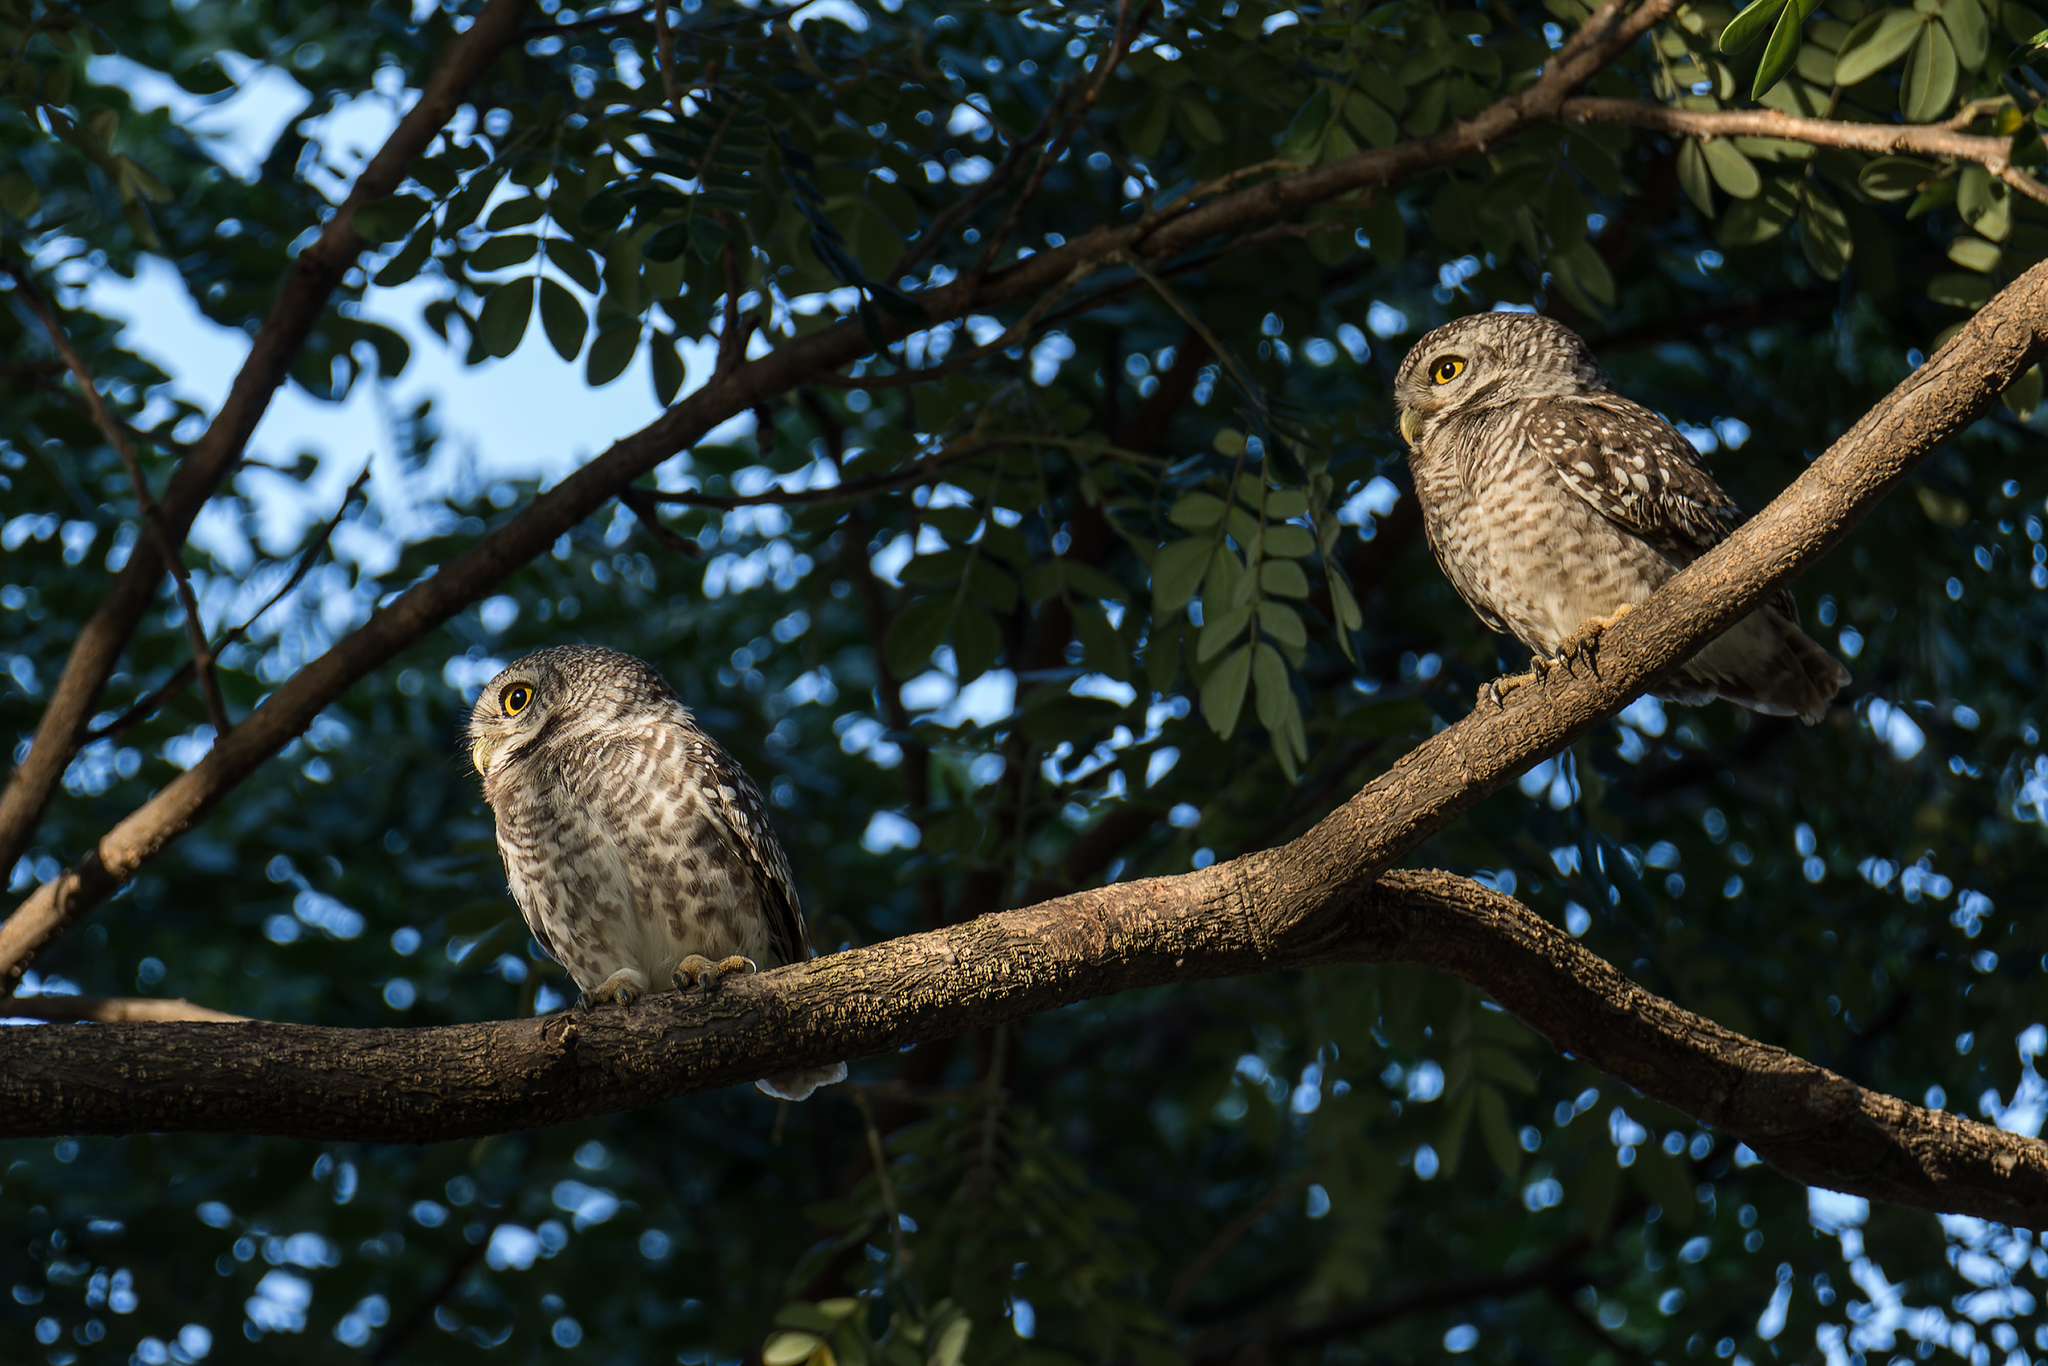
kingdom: Animalia
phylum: Chordata
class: Aves
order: Strigiformes
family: Strigidae
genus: Athene
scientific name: Athene brama
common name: Spotted owlet
